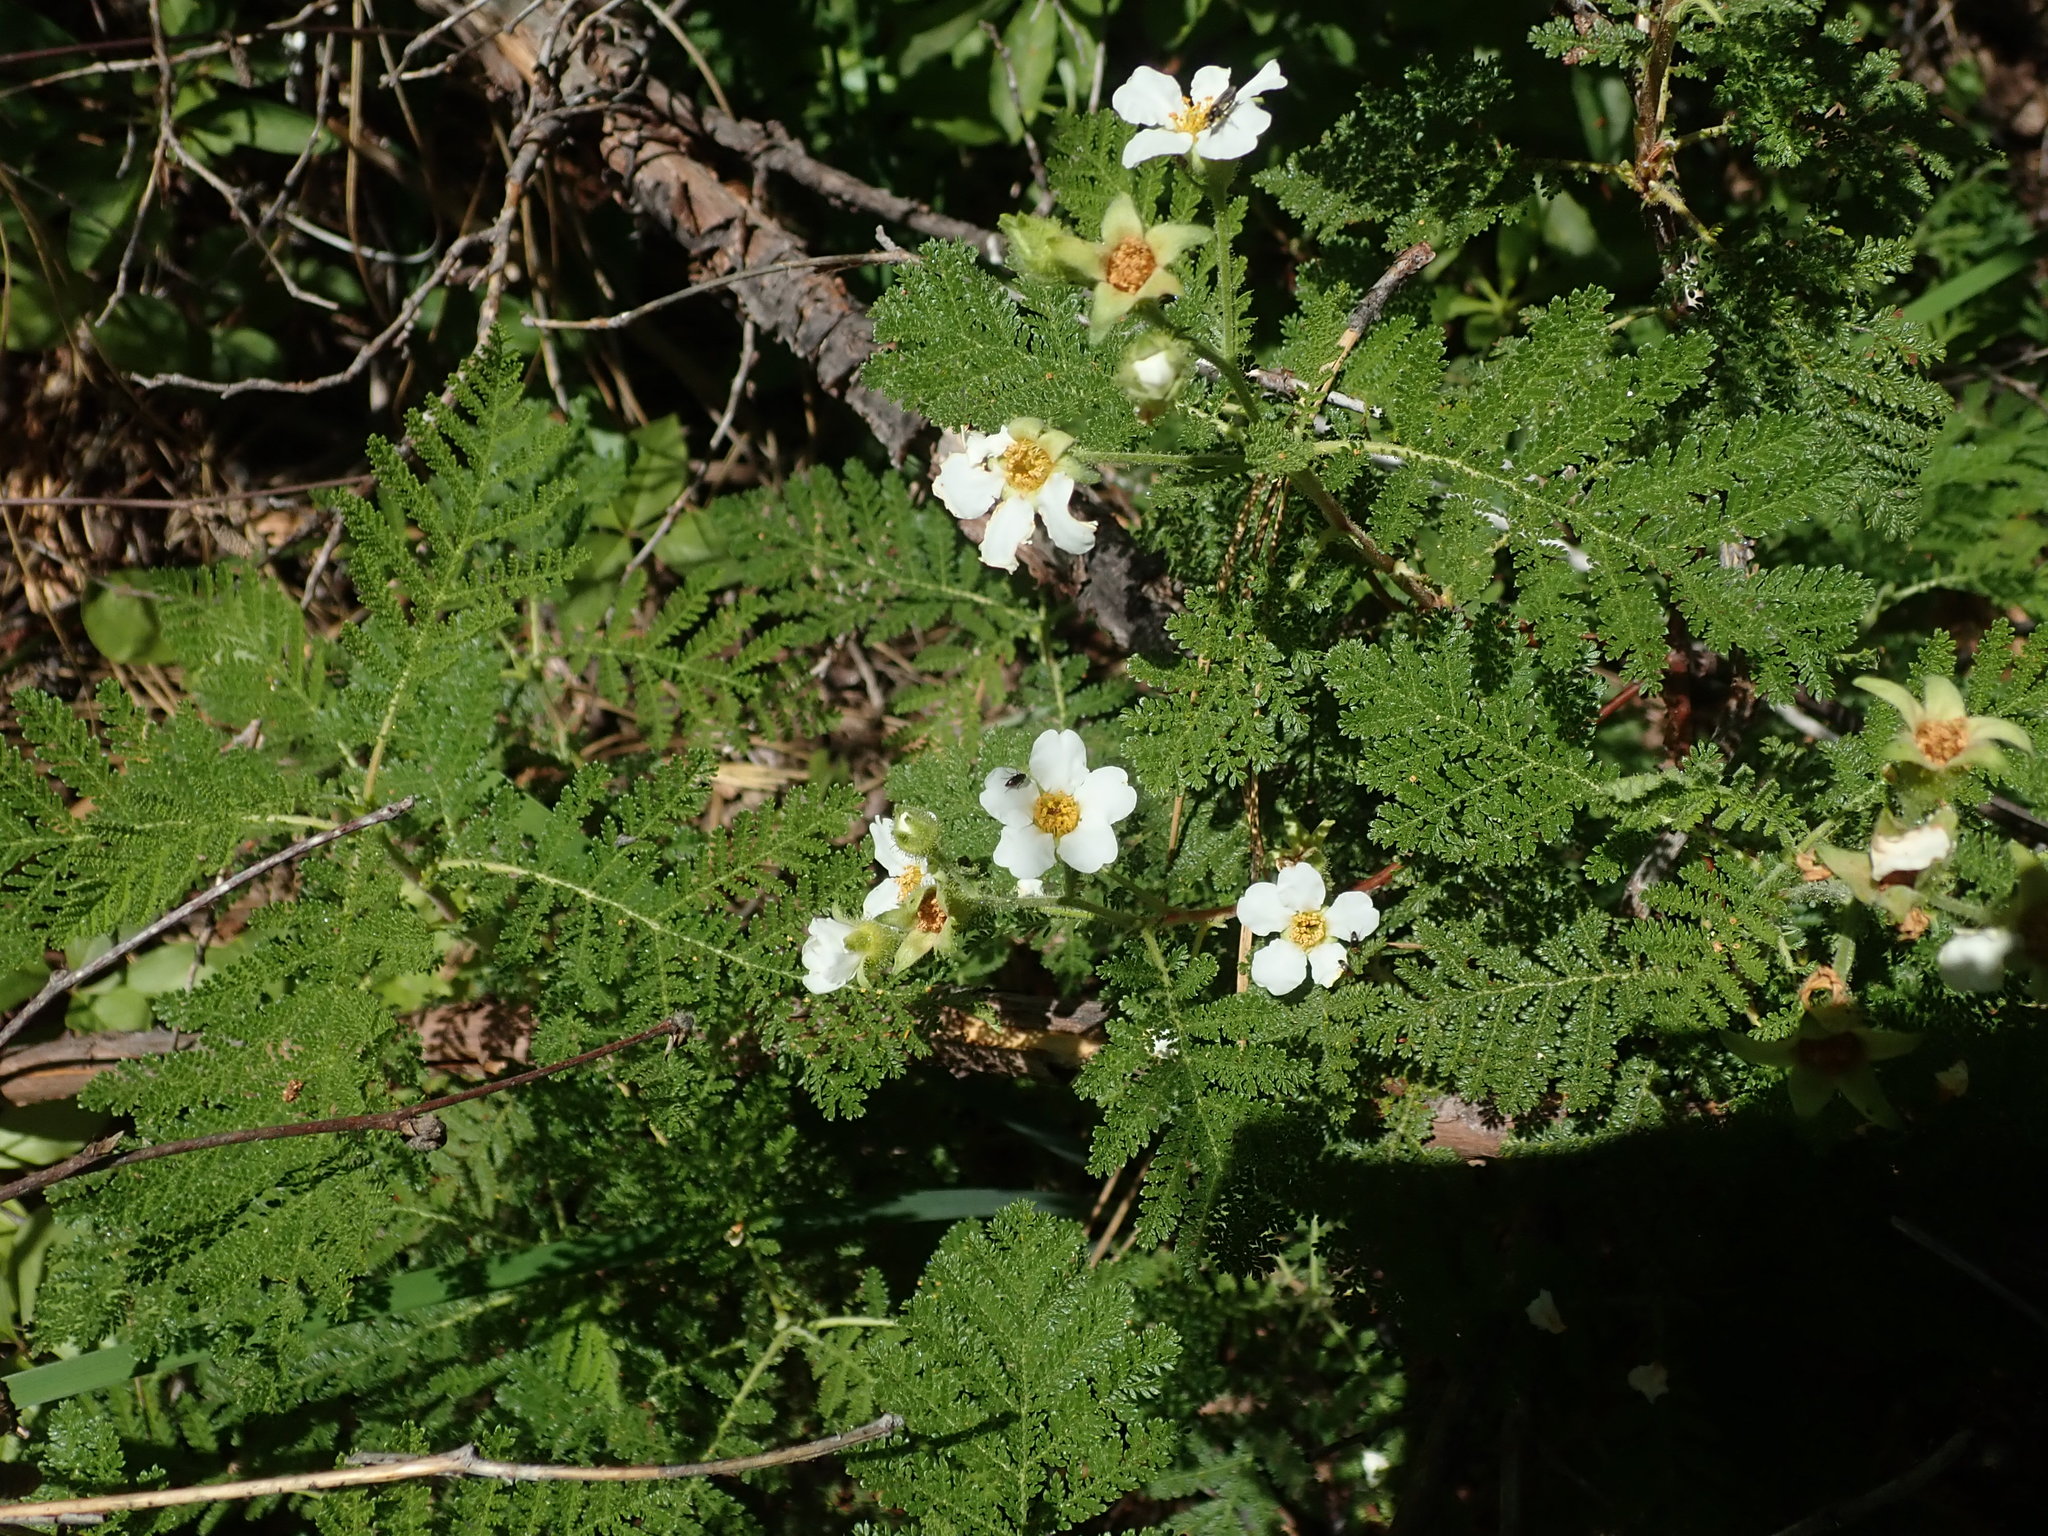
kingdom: Plantae
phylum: Tracheophyta
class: Magnoliopsida
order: Rosales
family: Rosaceae
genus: Chamaebatia
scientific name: Chamaebatia foliolosa
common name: Mountain misery
